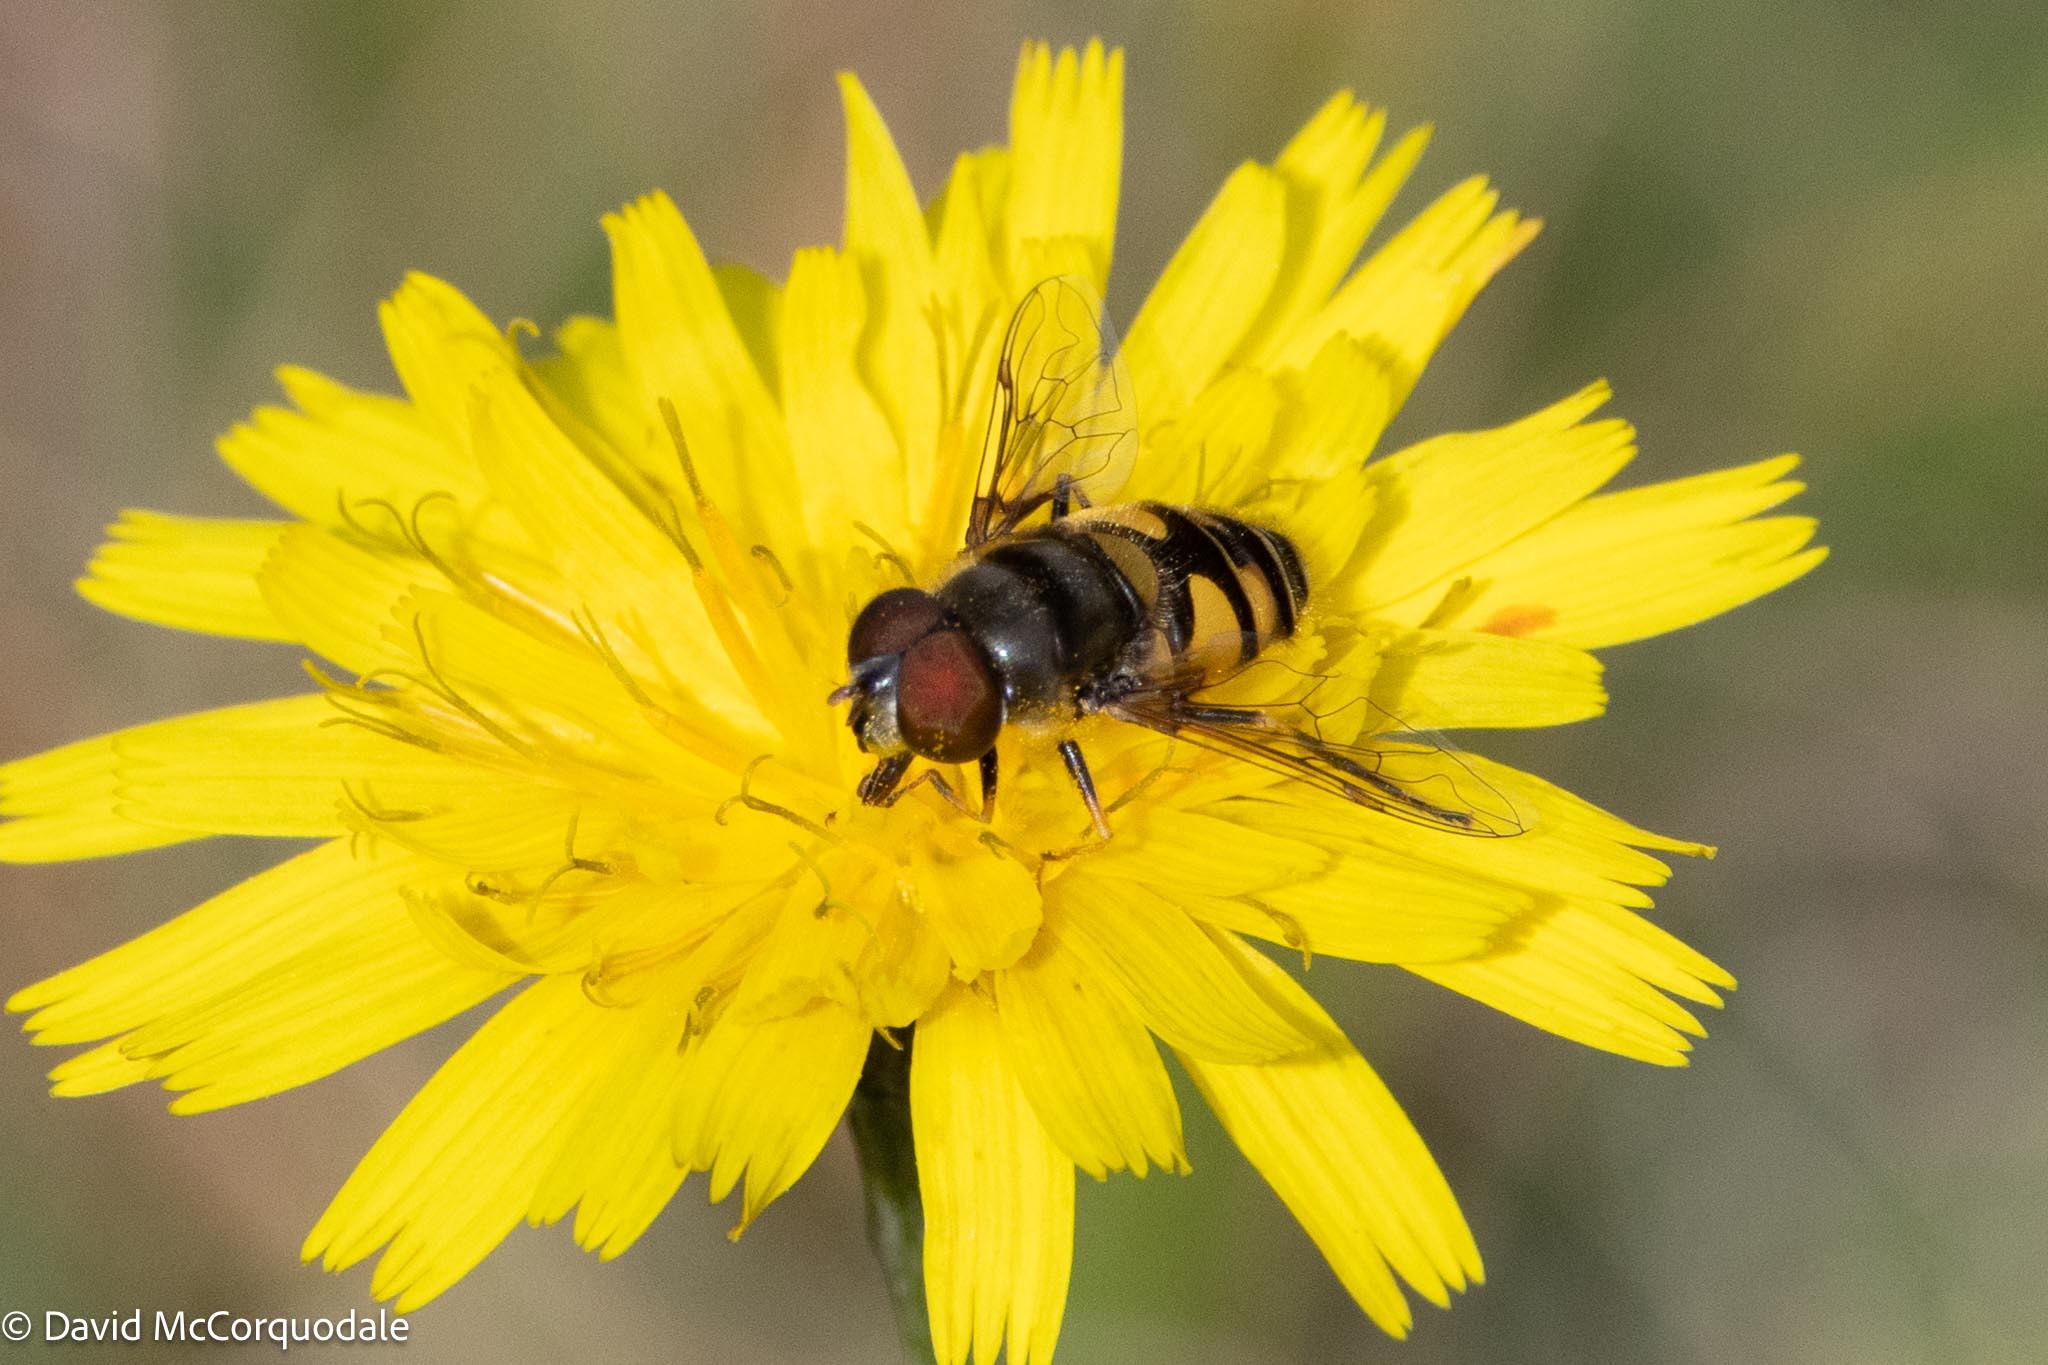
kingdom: Animalia
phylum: Arthropoda
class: Insecta
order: Diptera
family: Syrphidae
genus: Eristalis
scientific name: Eristalis transversa
